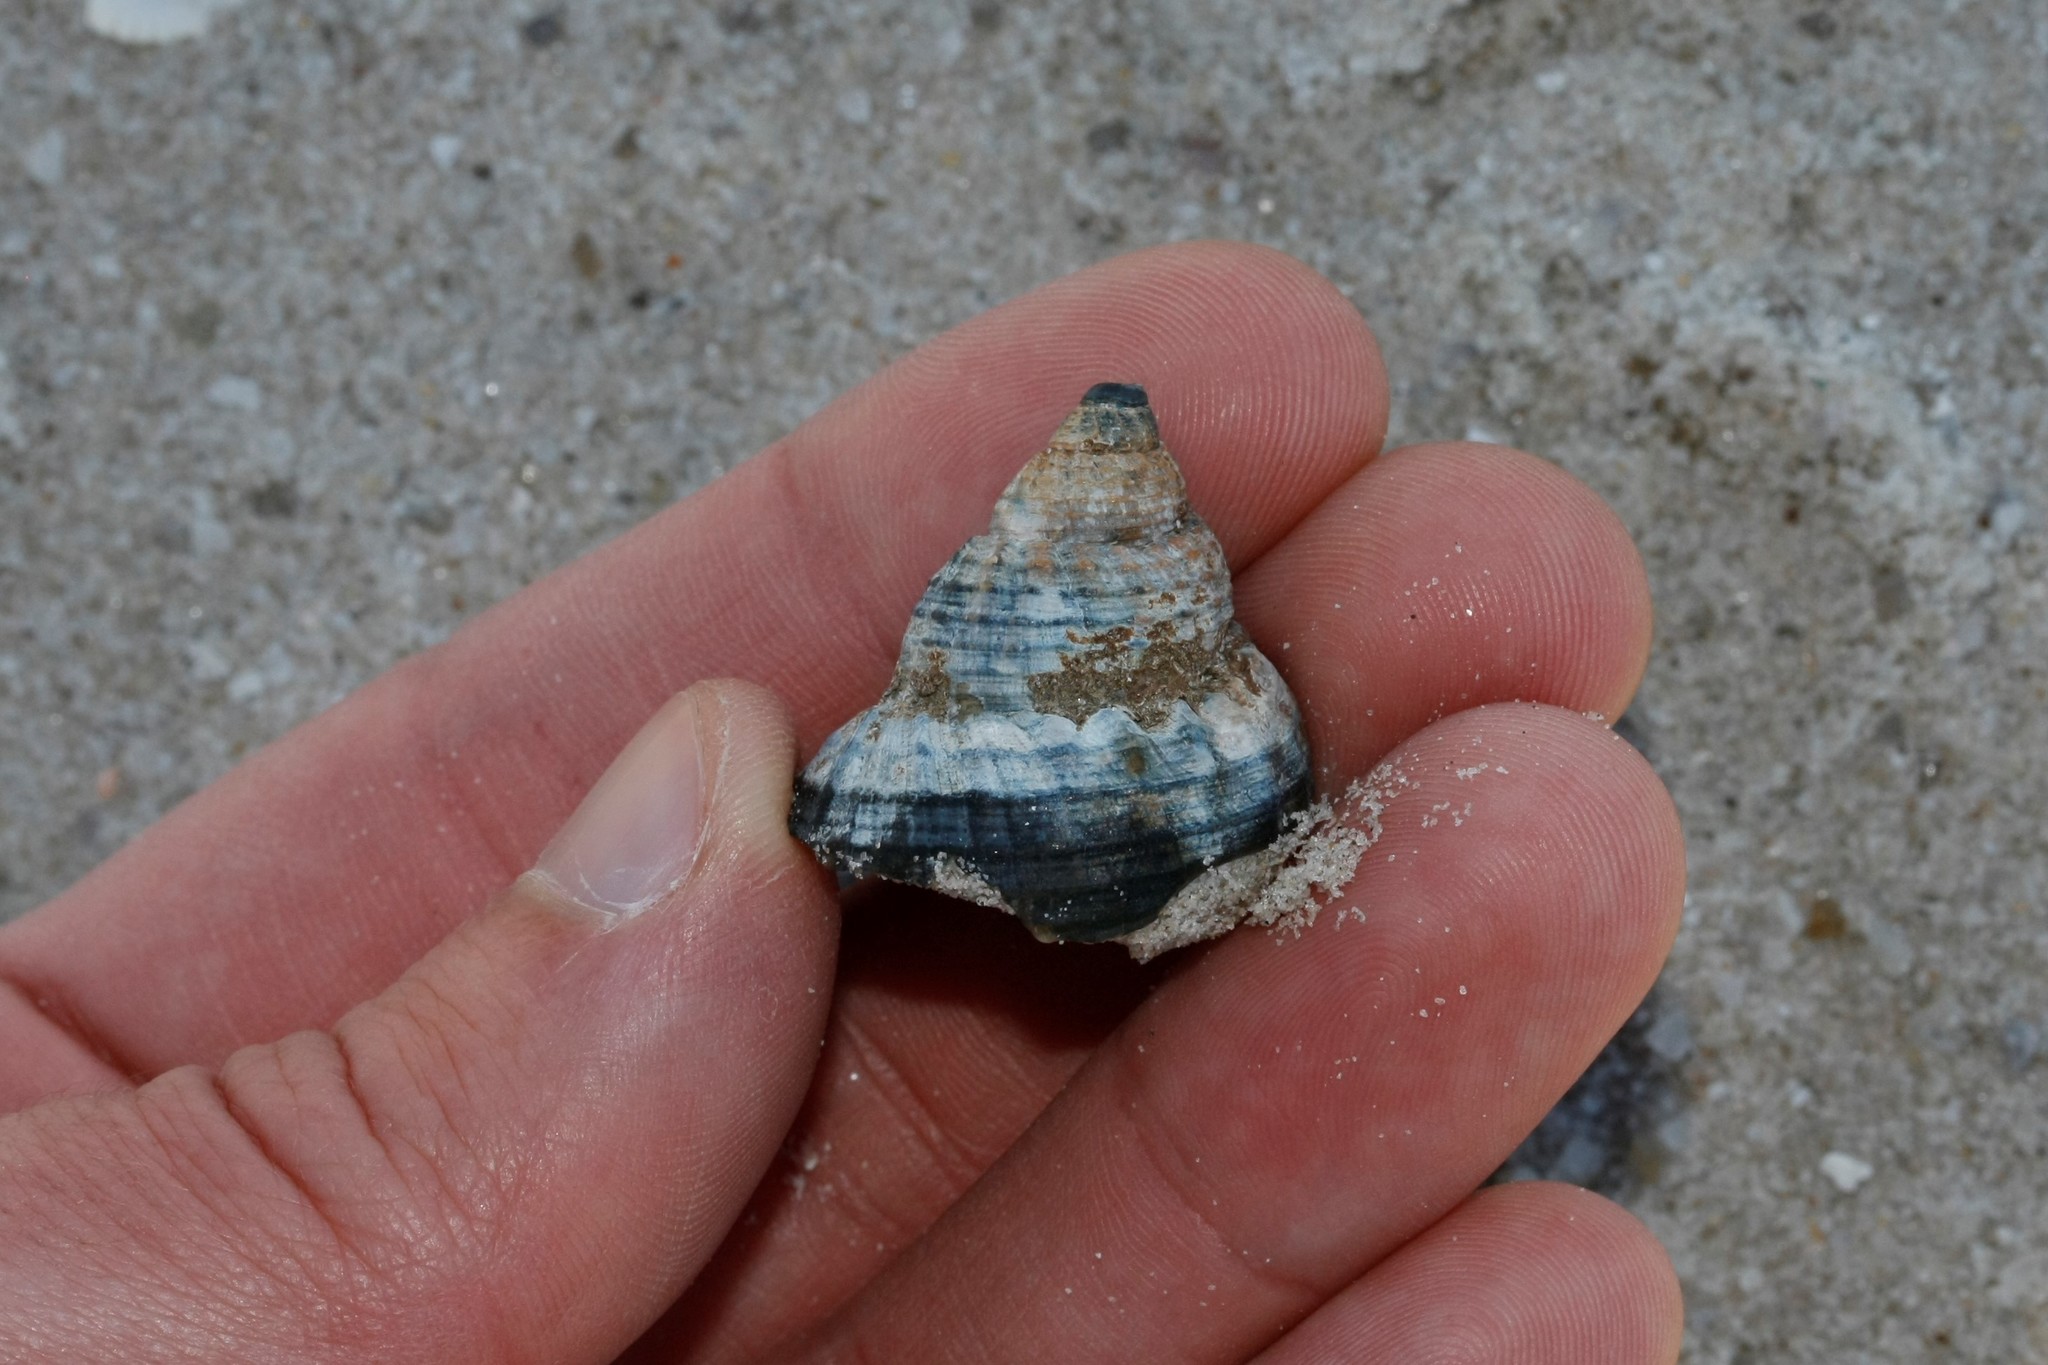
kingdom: Animalia
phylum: Mollusca
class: Gastropoda
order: Neogastropoda
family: Buccinidae
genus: Buccinum
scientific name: Buccinum undatum
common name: Common whelk
